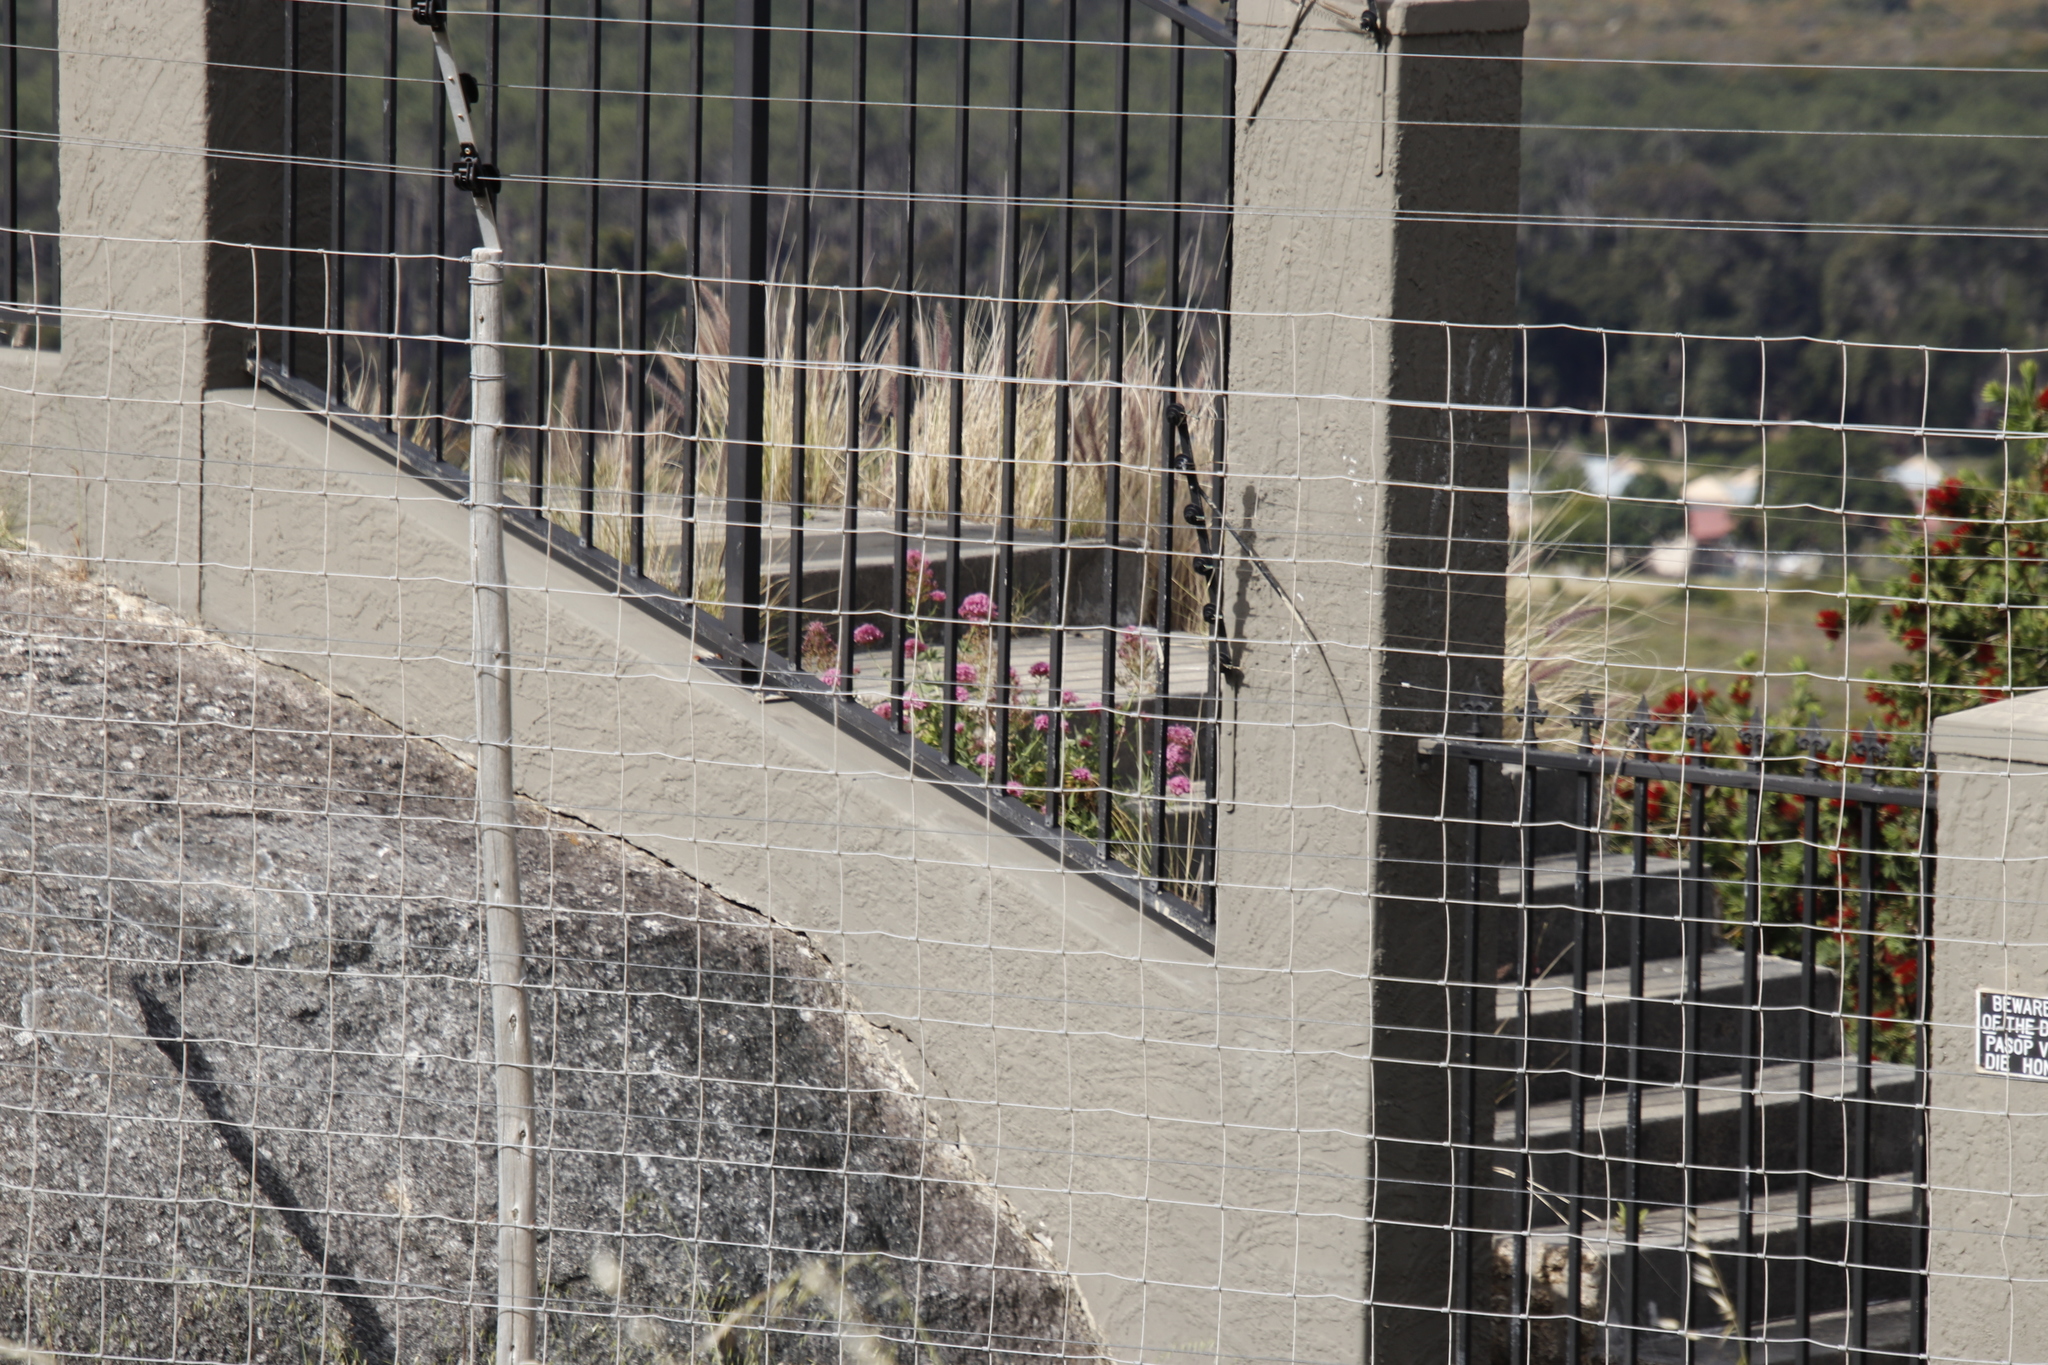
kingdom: Plantae
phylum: Tracheophyta
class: Magnoliopsida
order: Dipsacales
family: Caprifoliaceae
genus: Centranthus
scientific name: Centranthus ruber
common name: Red valerian
